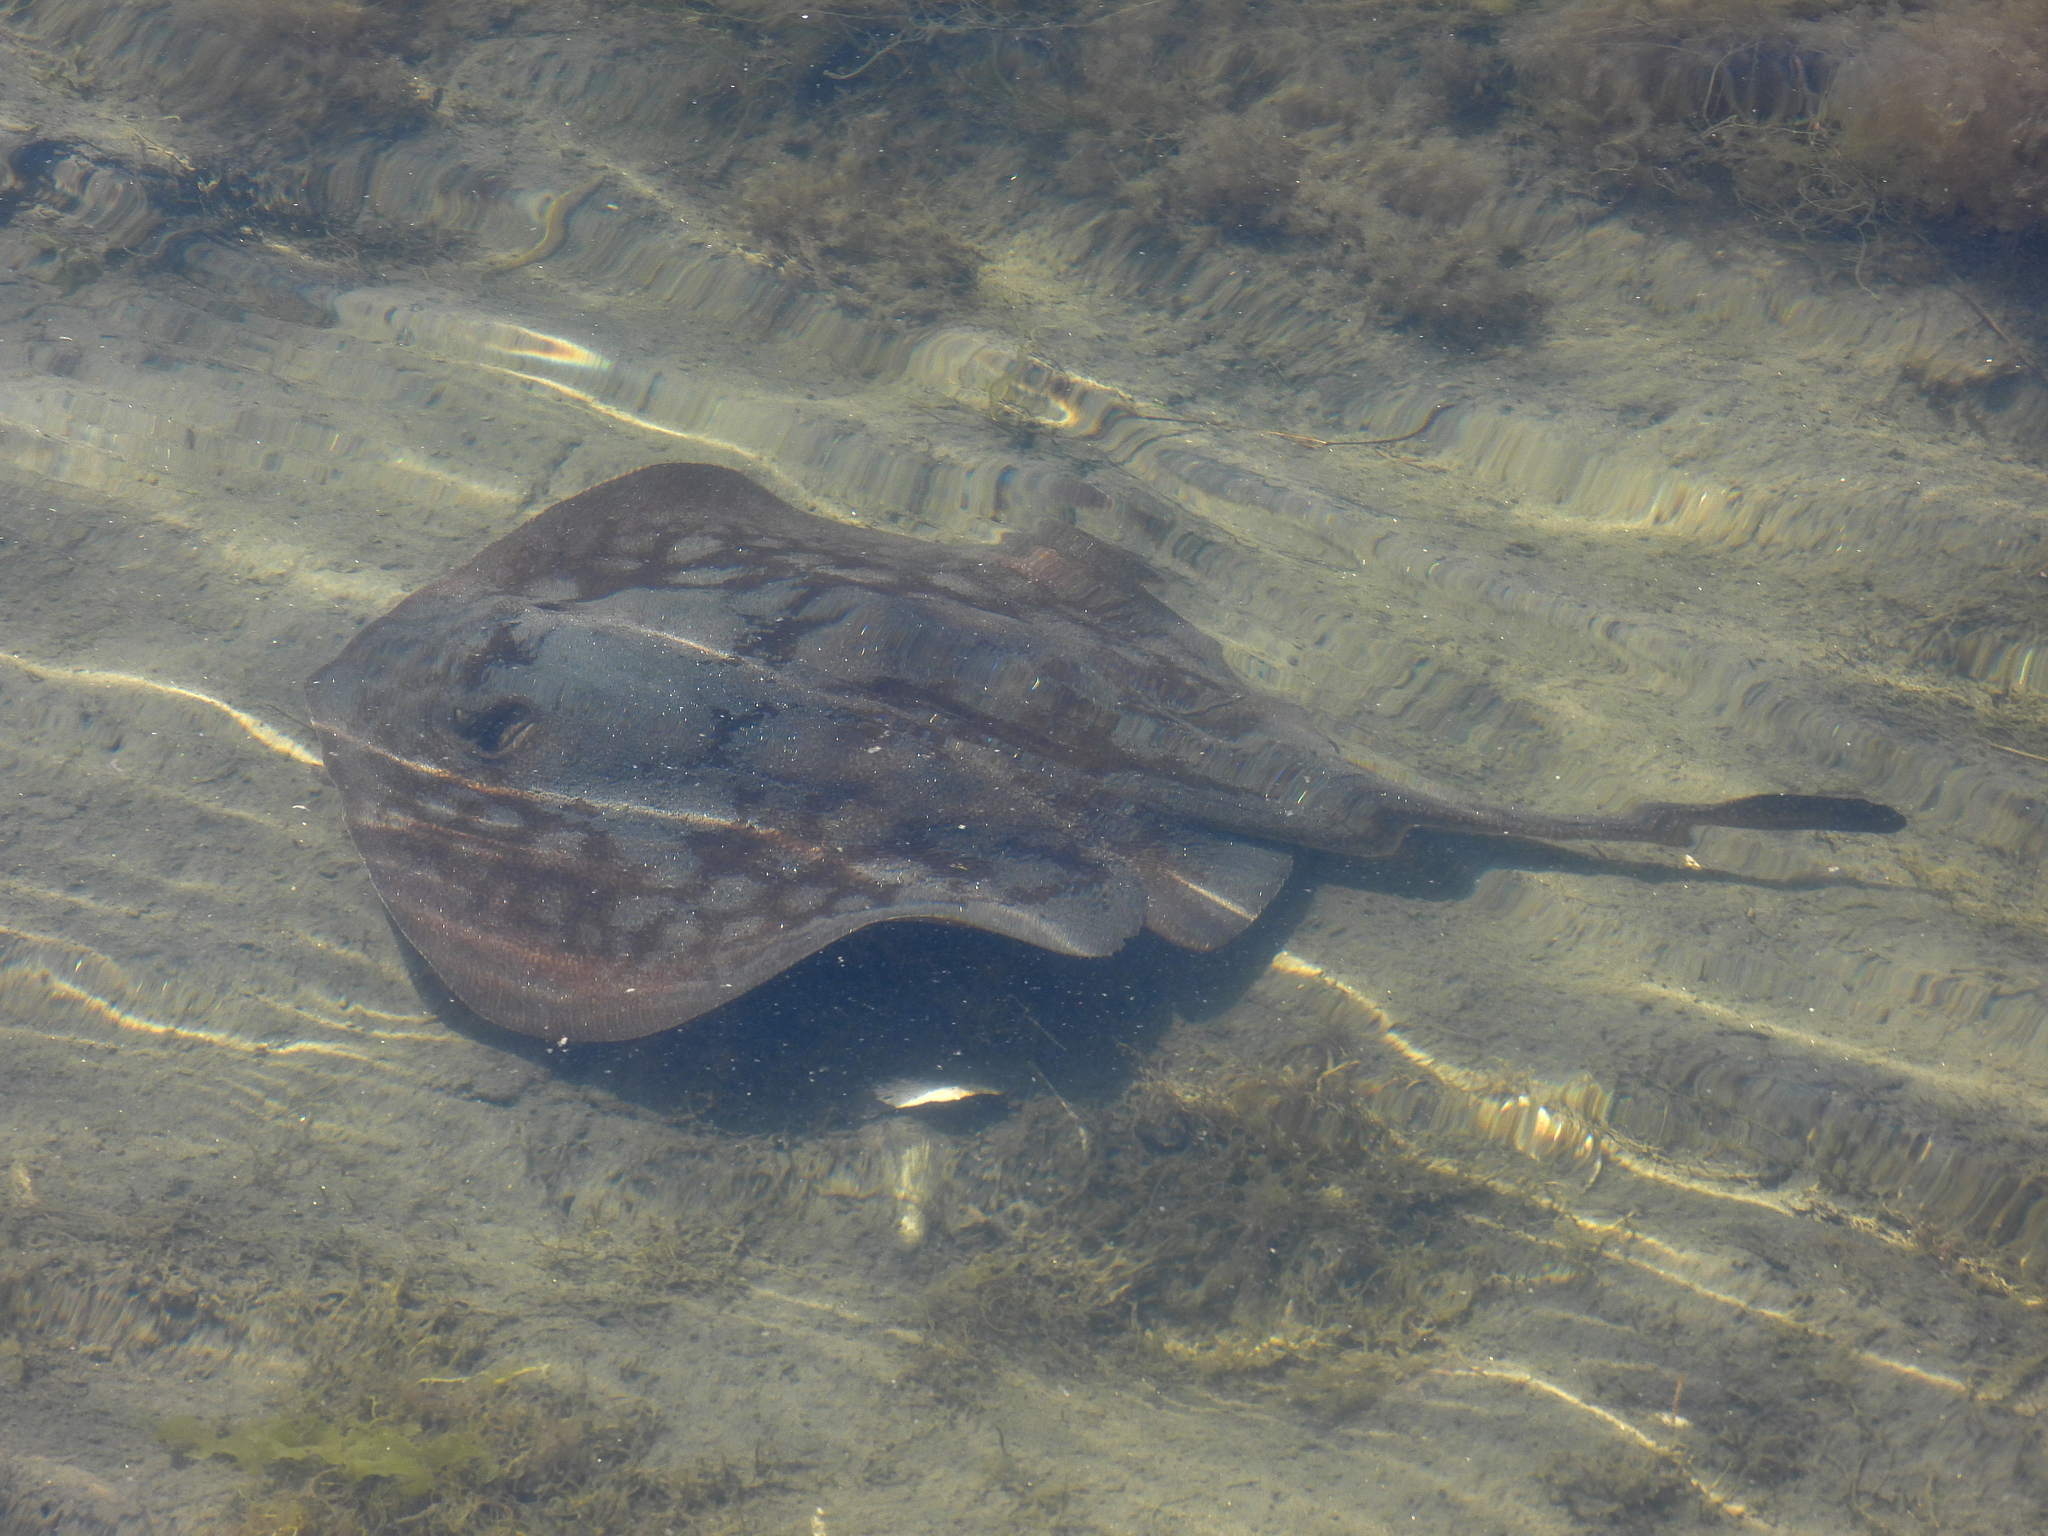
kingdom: Animalia
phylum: Chordata
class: Elasmobranchii
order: Myliobatiformes
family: Urolophidae
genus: Urolophus
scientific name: Urolophus halleri
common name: Round stingray
